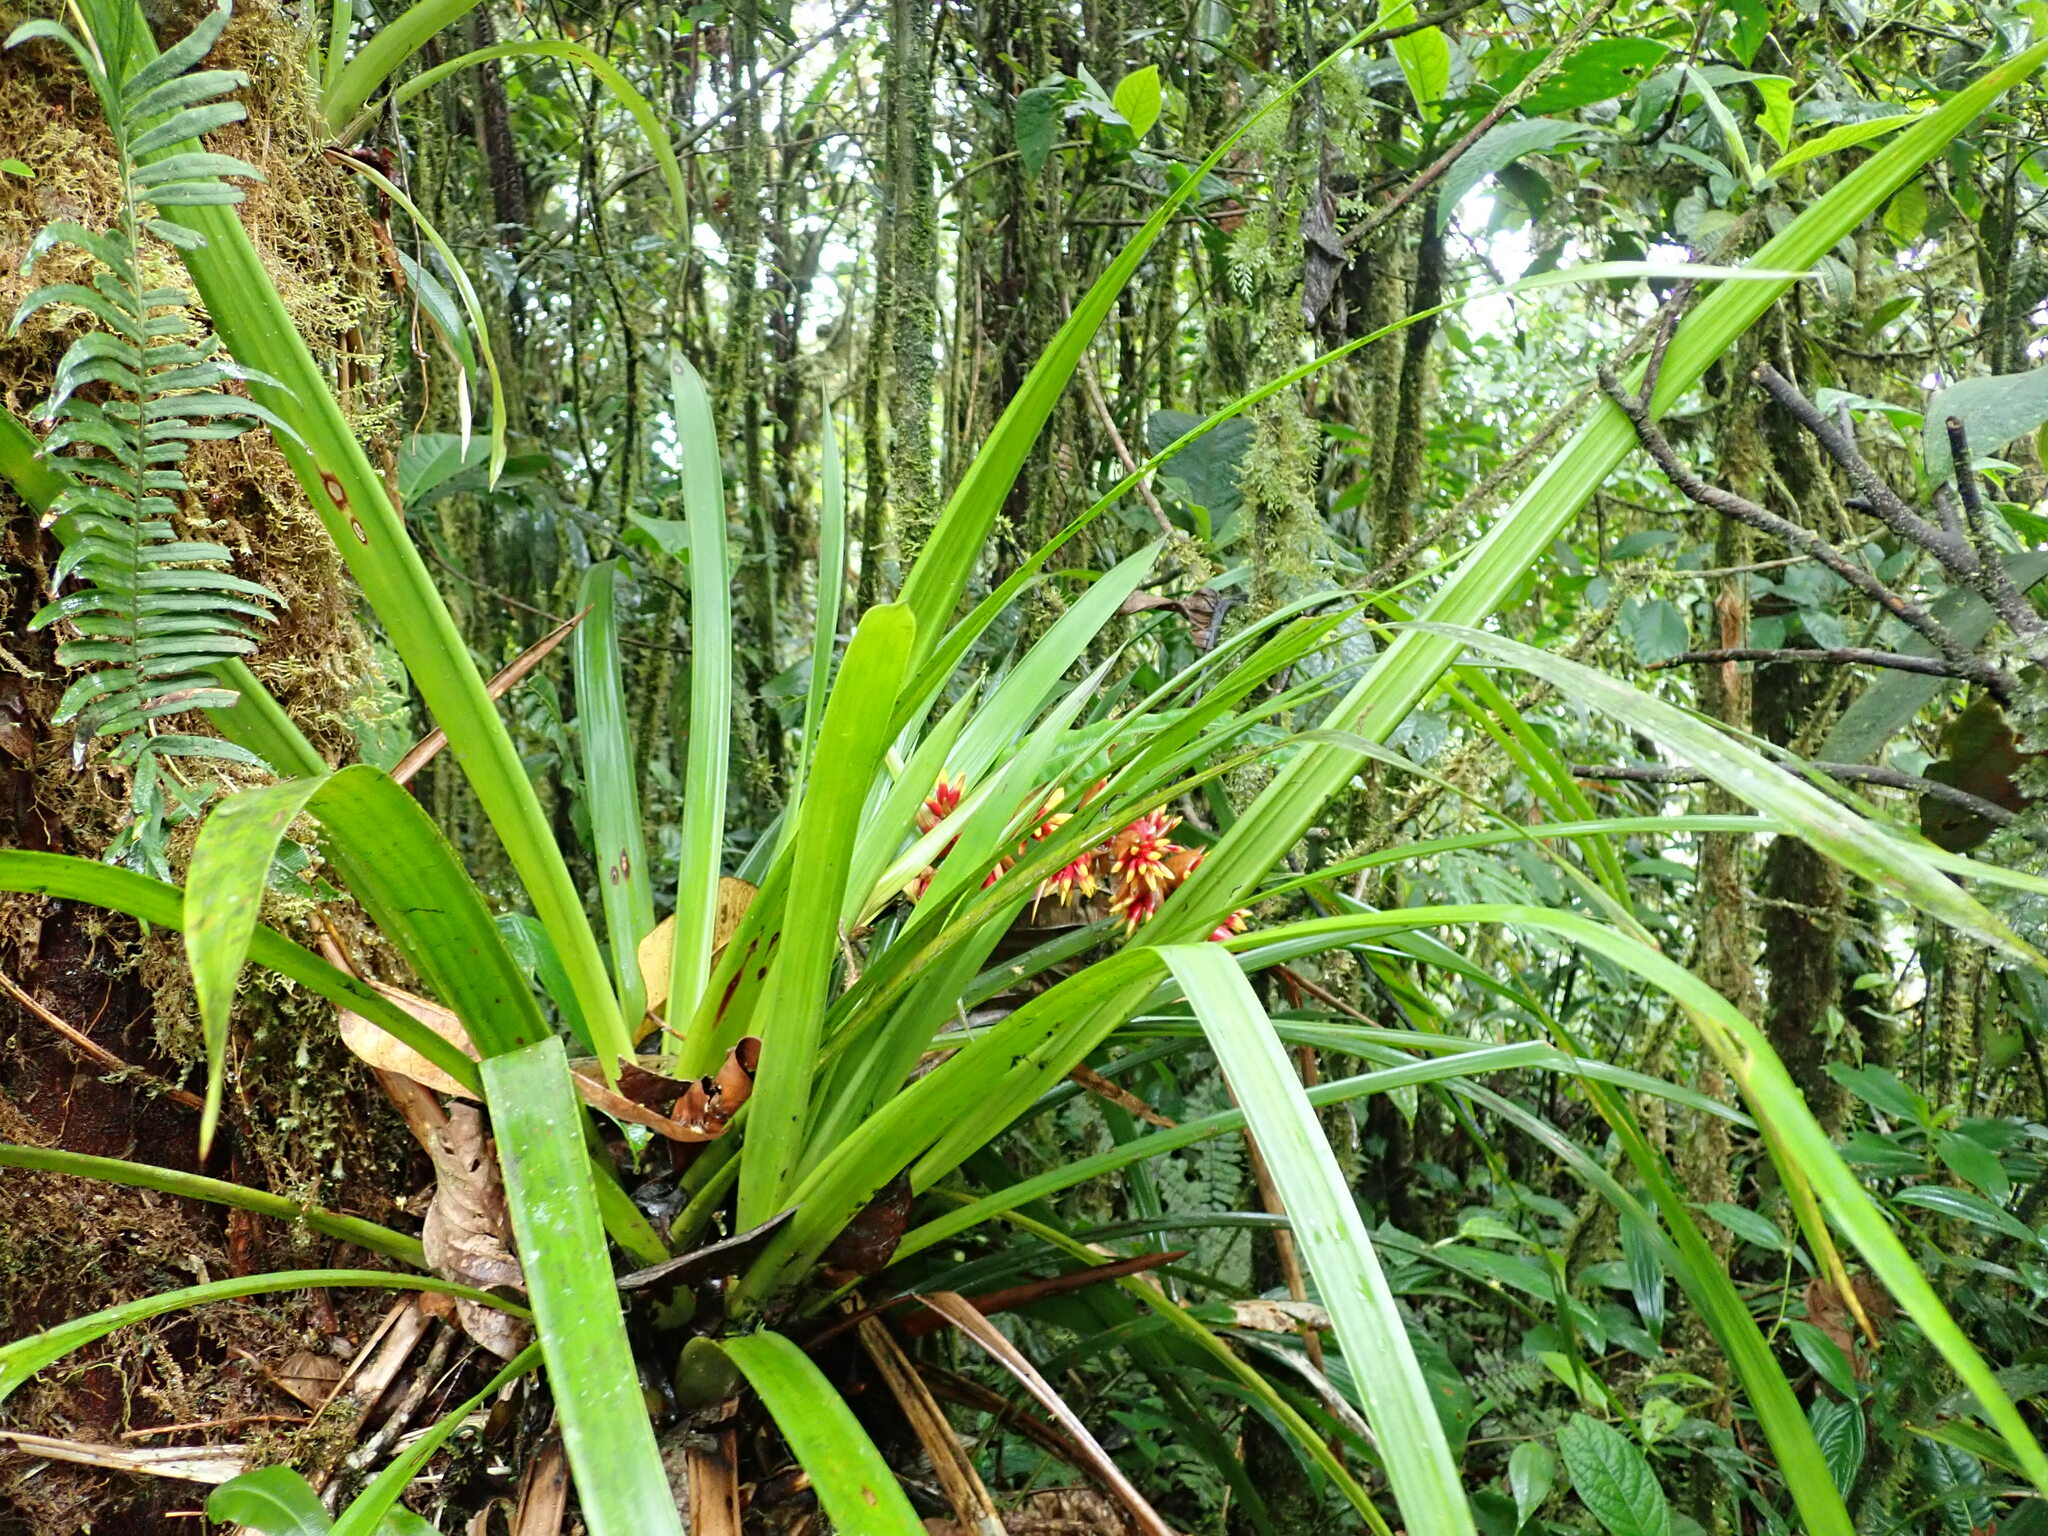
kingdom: Plantae
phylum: Tracheophyta
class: Liliopsida
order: Poales
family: Bromeliaceae
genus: Guzmania
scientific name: Guzmania peter-bakii
